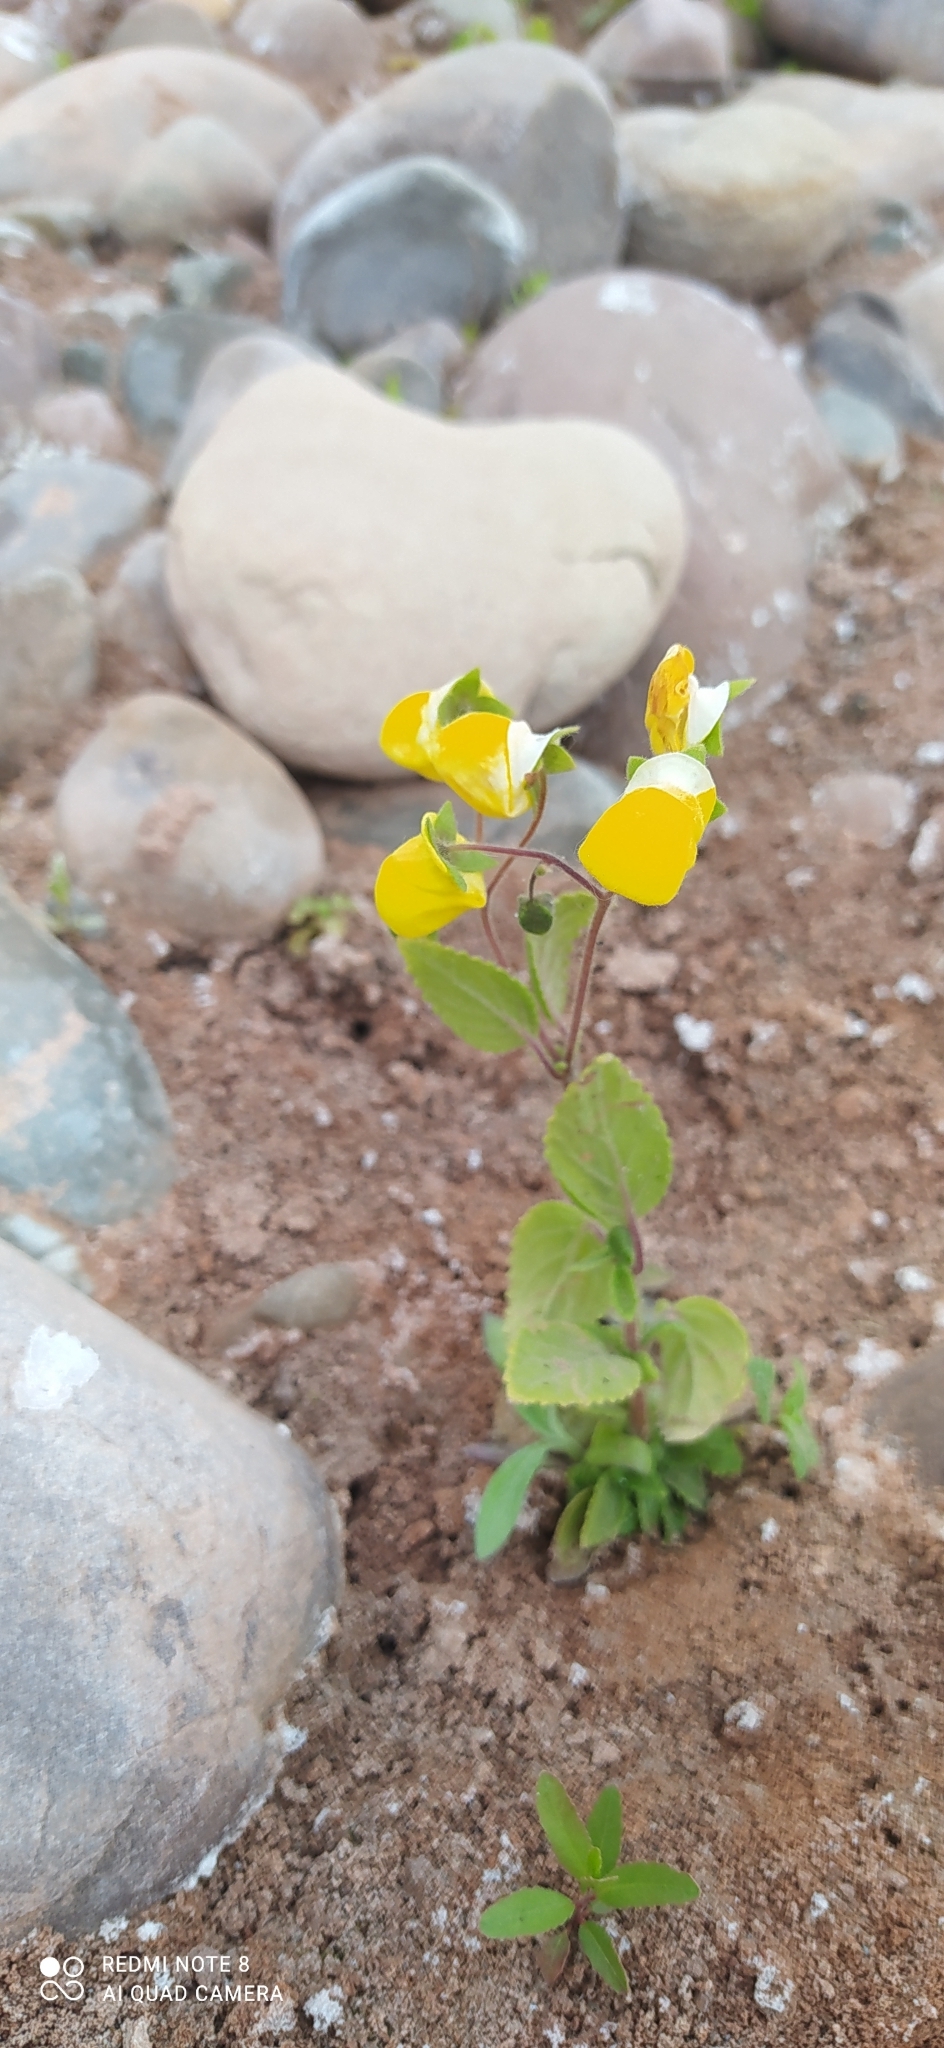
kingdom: Plantae
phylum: Tracheophyta
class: Magnoliopsida
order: Lamiales
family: Calceolariaceae
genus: Calceolaria
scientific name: Calceolaria elatior
